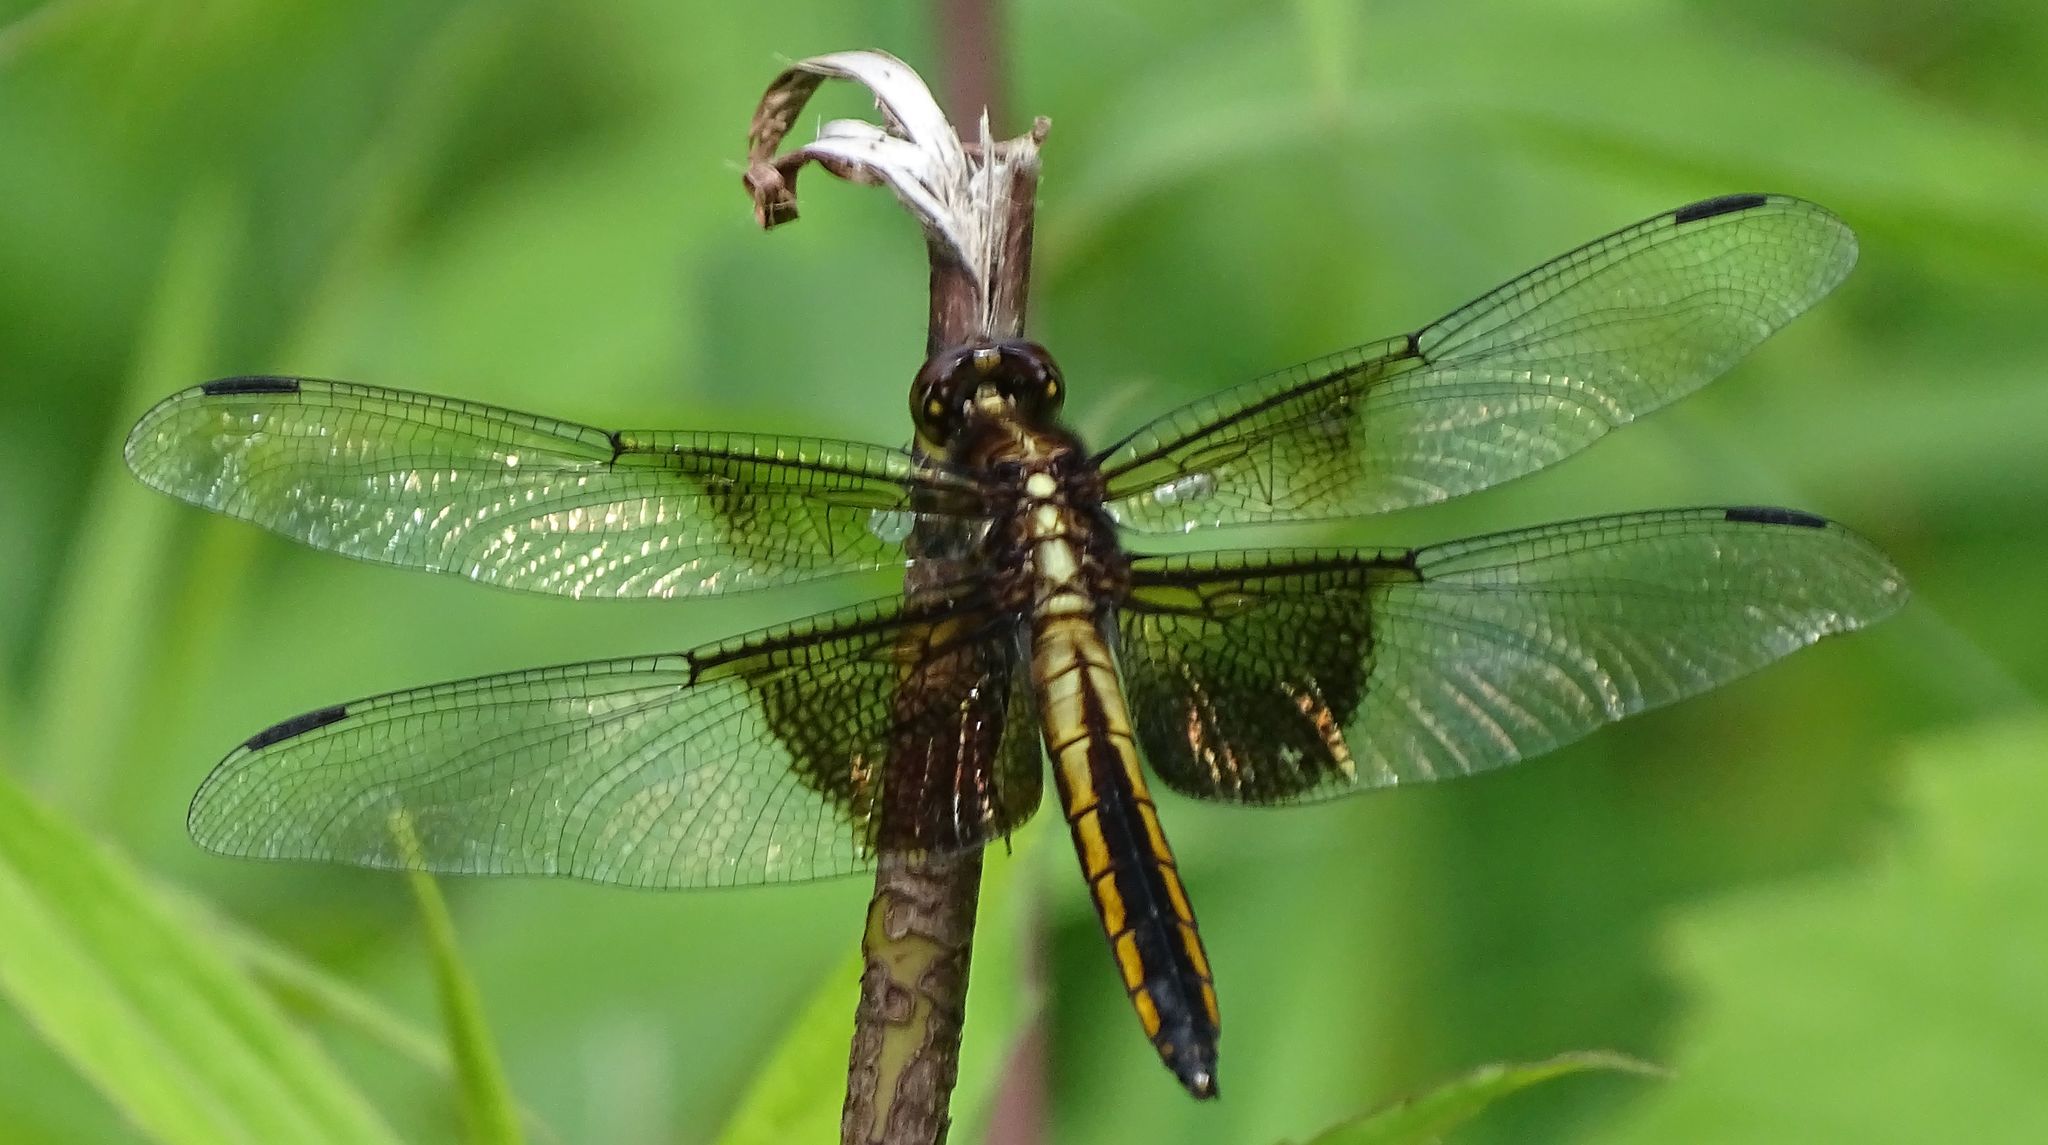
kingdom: Animalia
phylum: Arthropoda
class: Insecta
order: Odonata
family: Libellulidae
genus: Libellula
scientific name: Libellula luctuosa
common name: Widow skimmer
